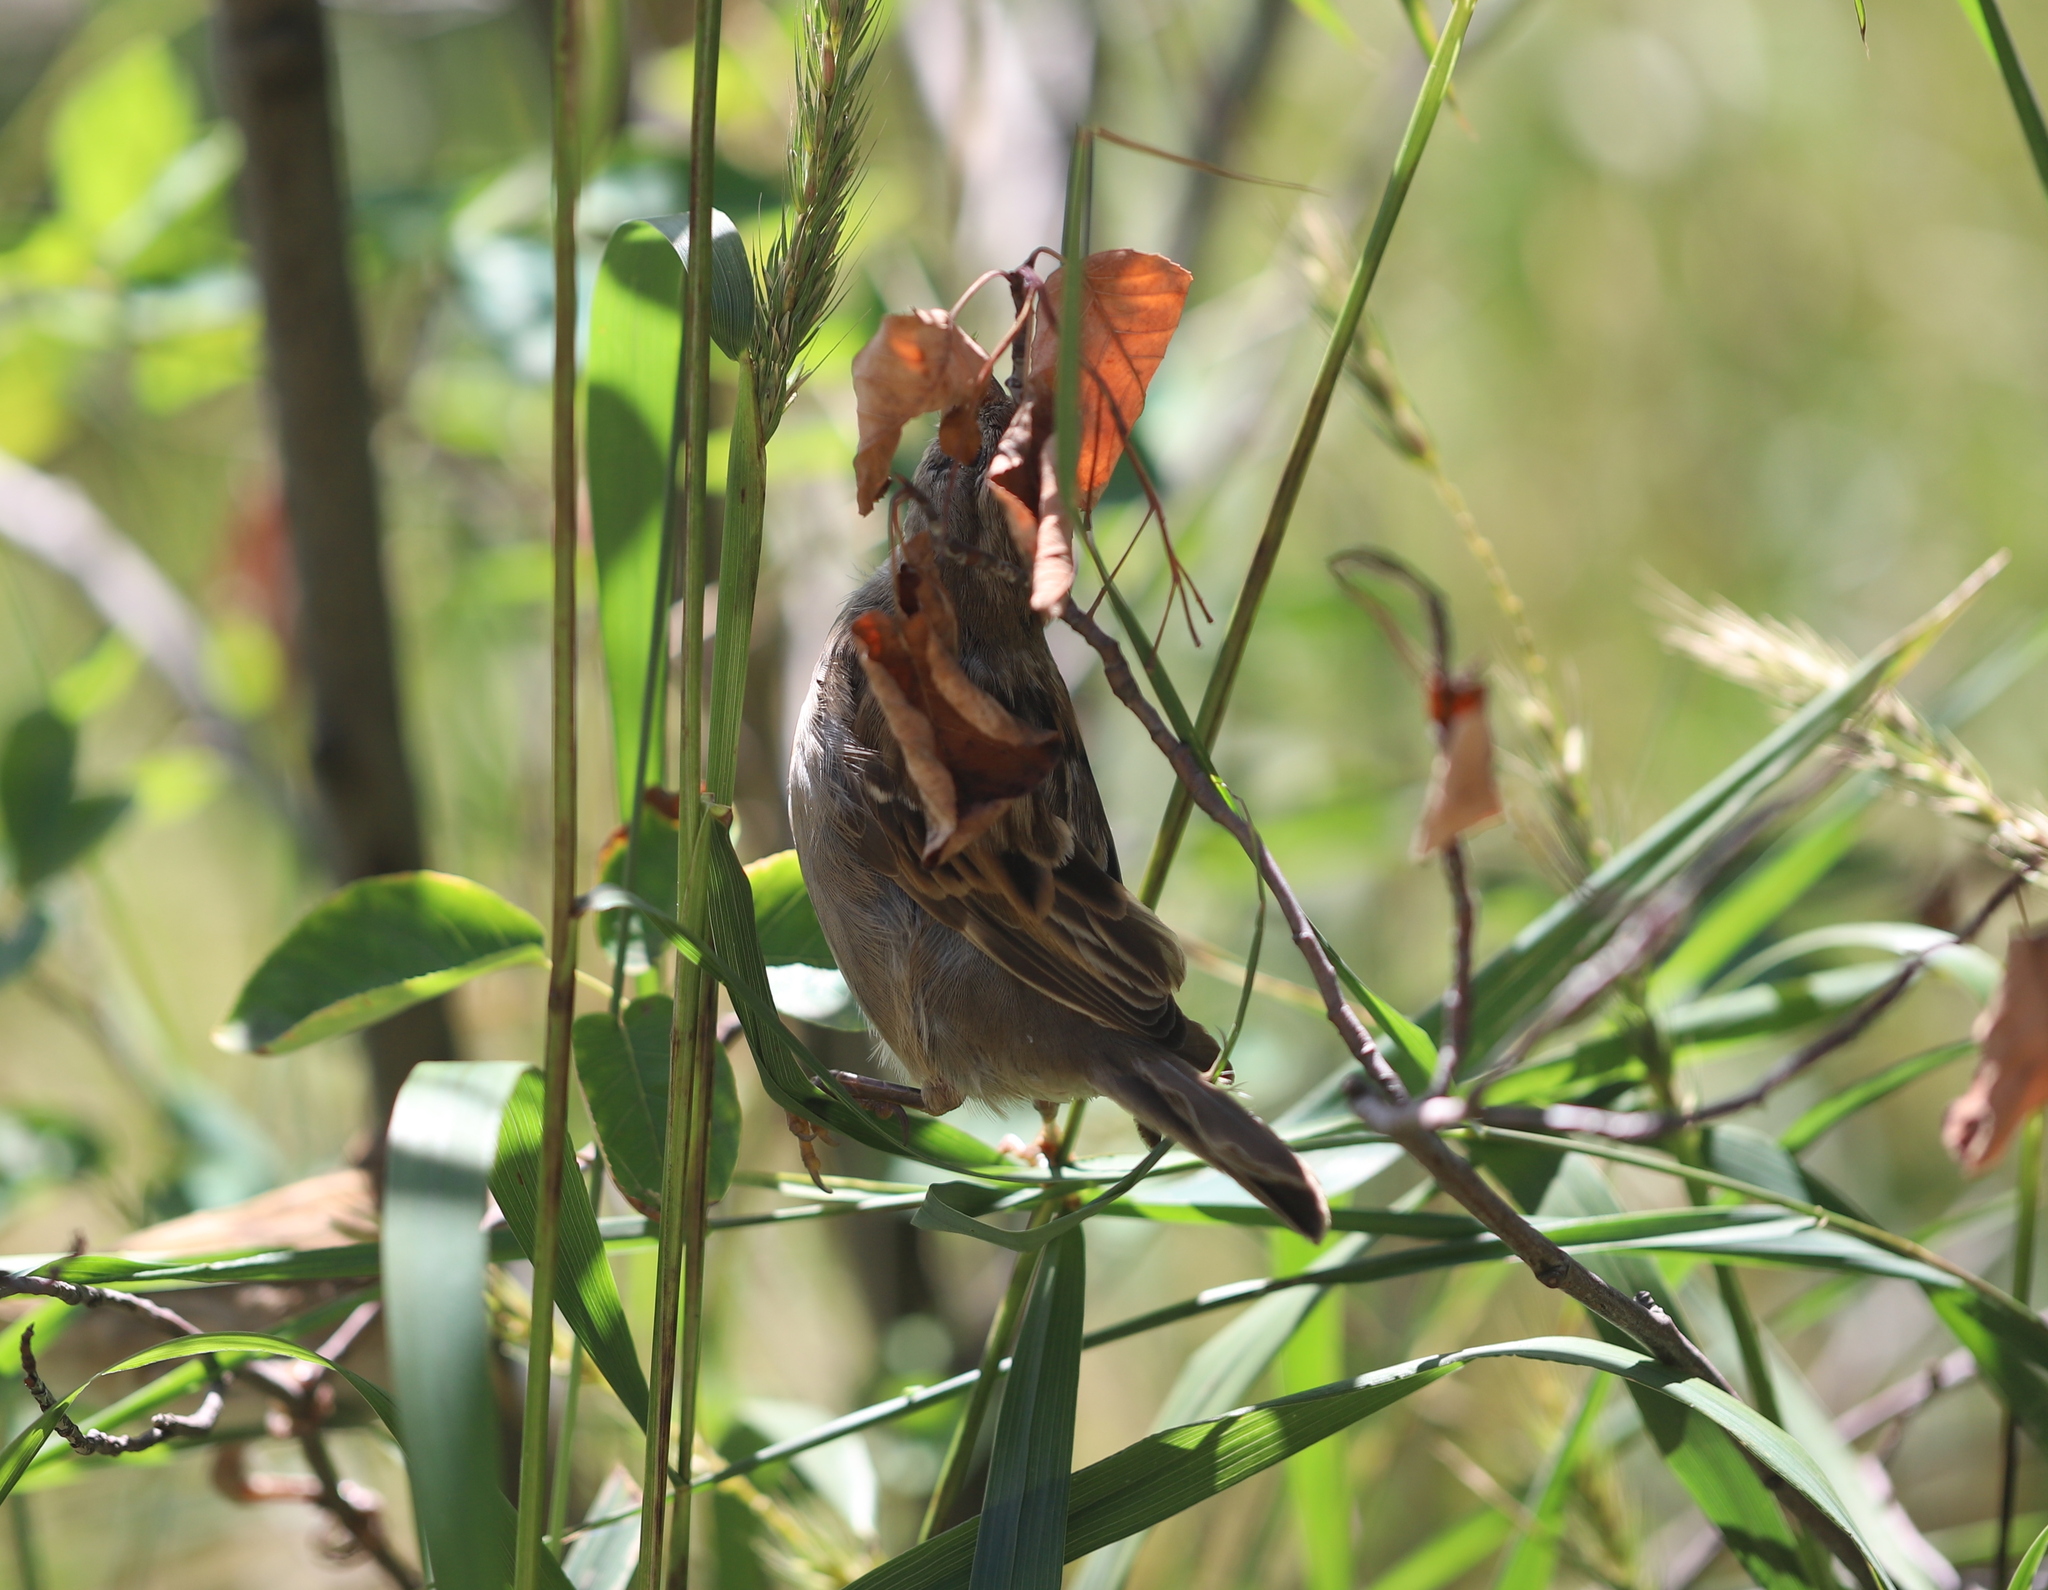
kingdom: Animalia
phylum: Chordata
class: Aves
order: Passeriformes
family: Passeridae
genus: Passer
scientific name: Passer domesticus
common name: House sparrow
